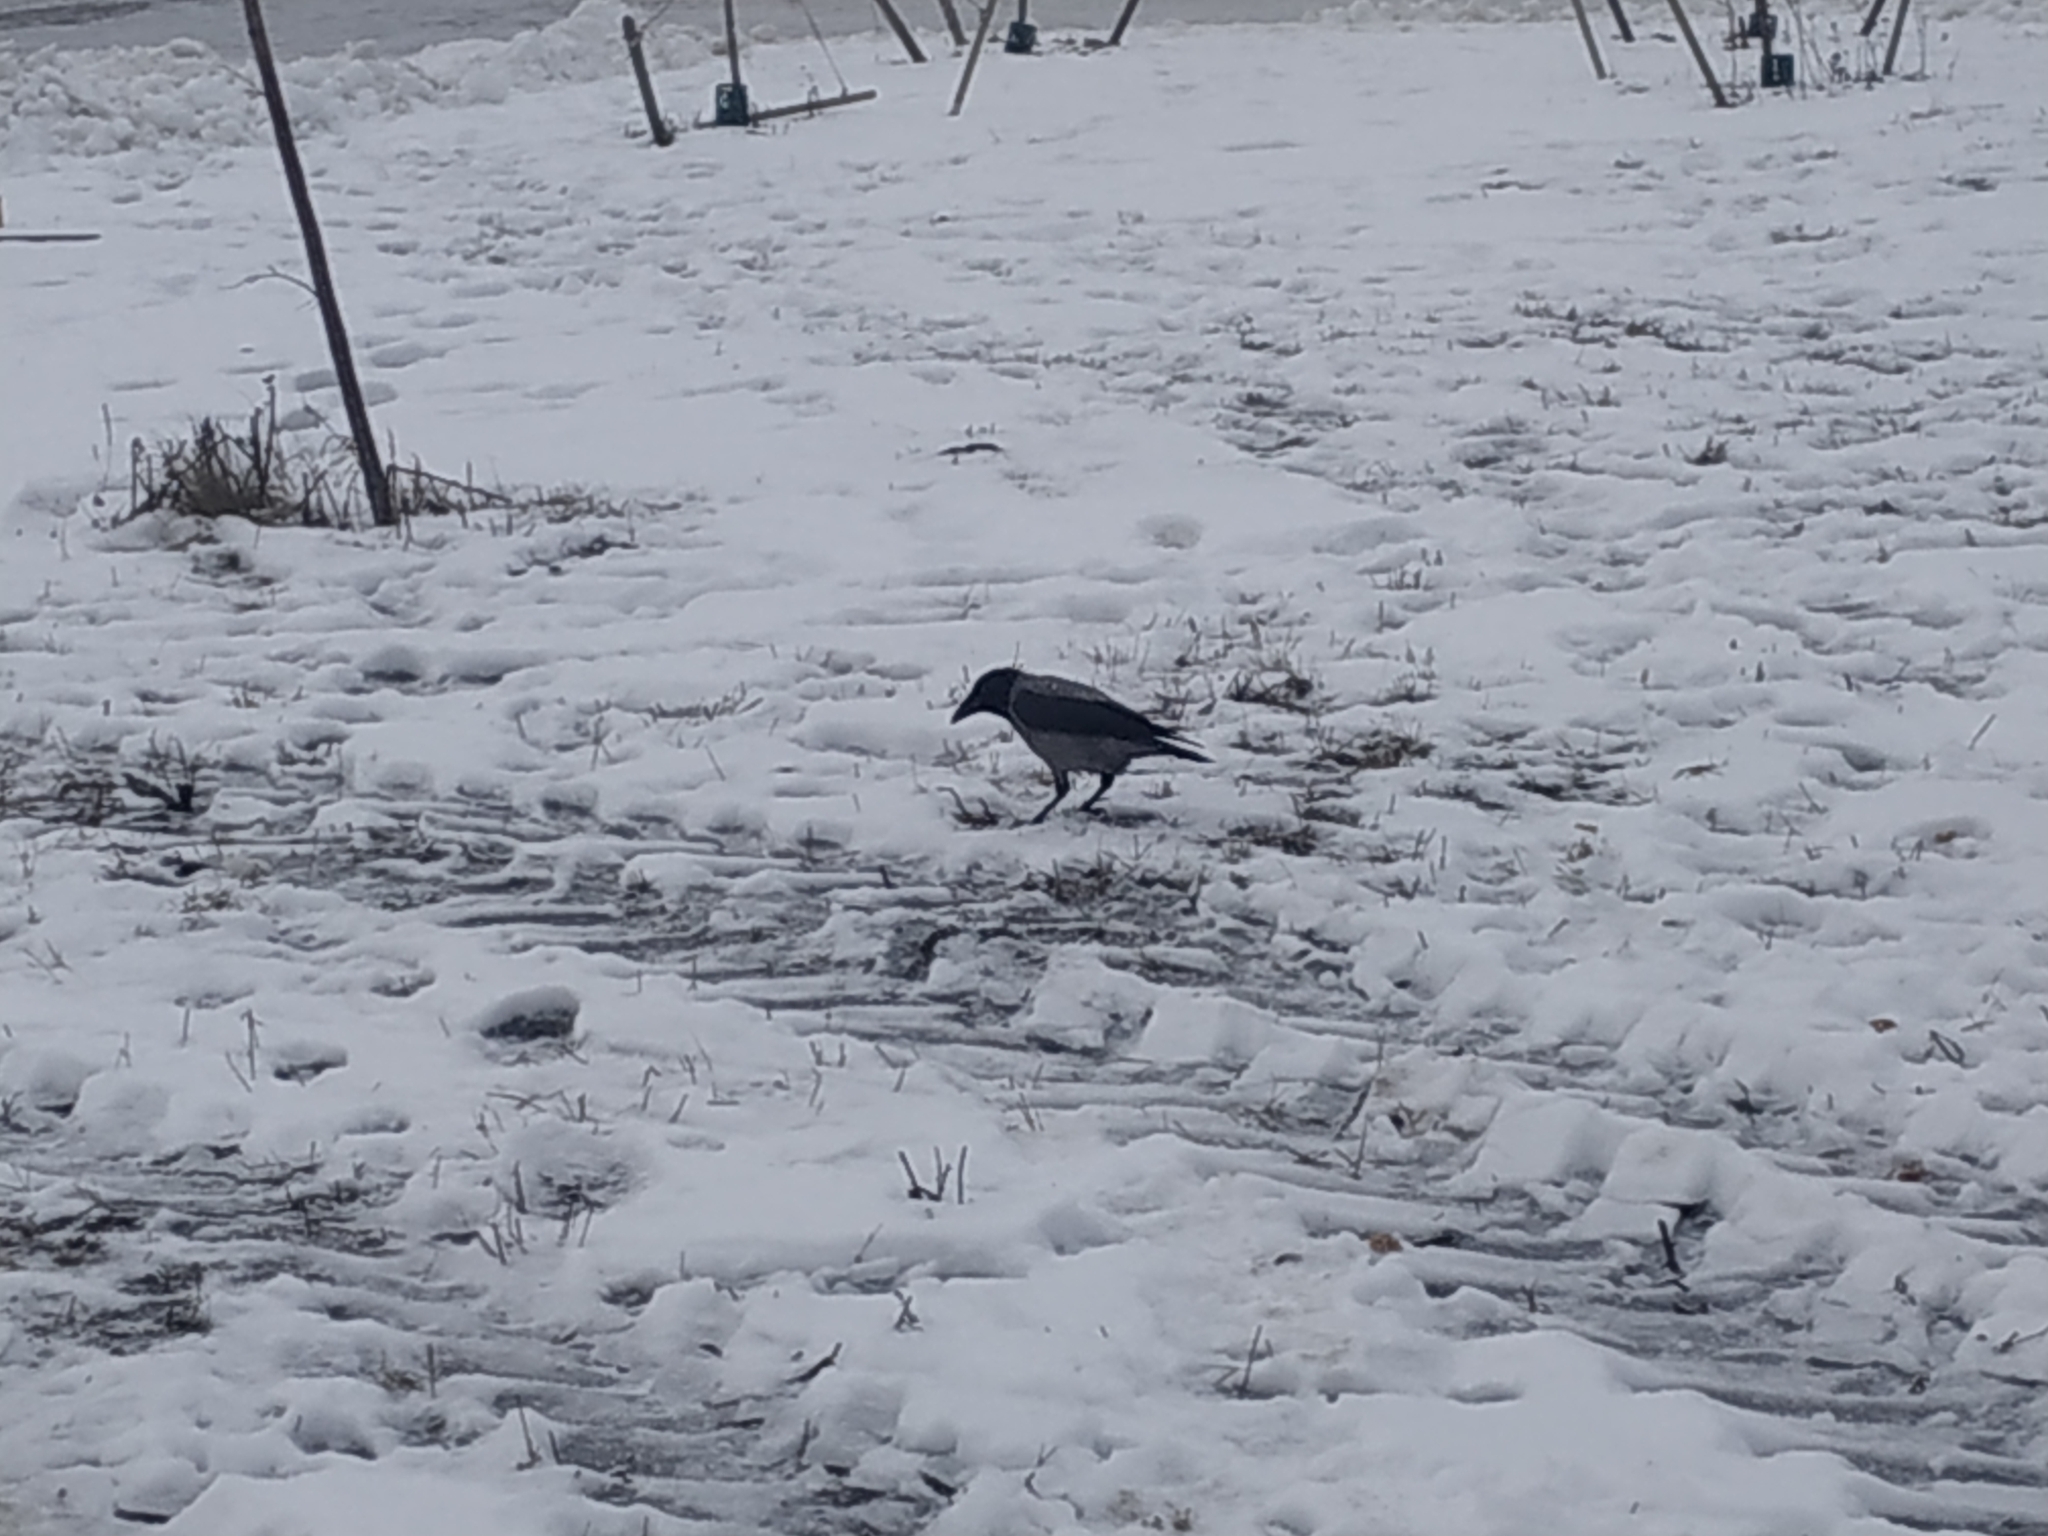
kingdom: Animalia
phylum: Chordata
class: Aves
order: Passeriformes
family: Corvidae
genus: Corvus
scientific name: Corvus cornix
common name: Hooded crow
